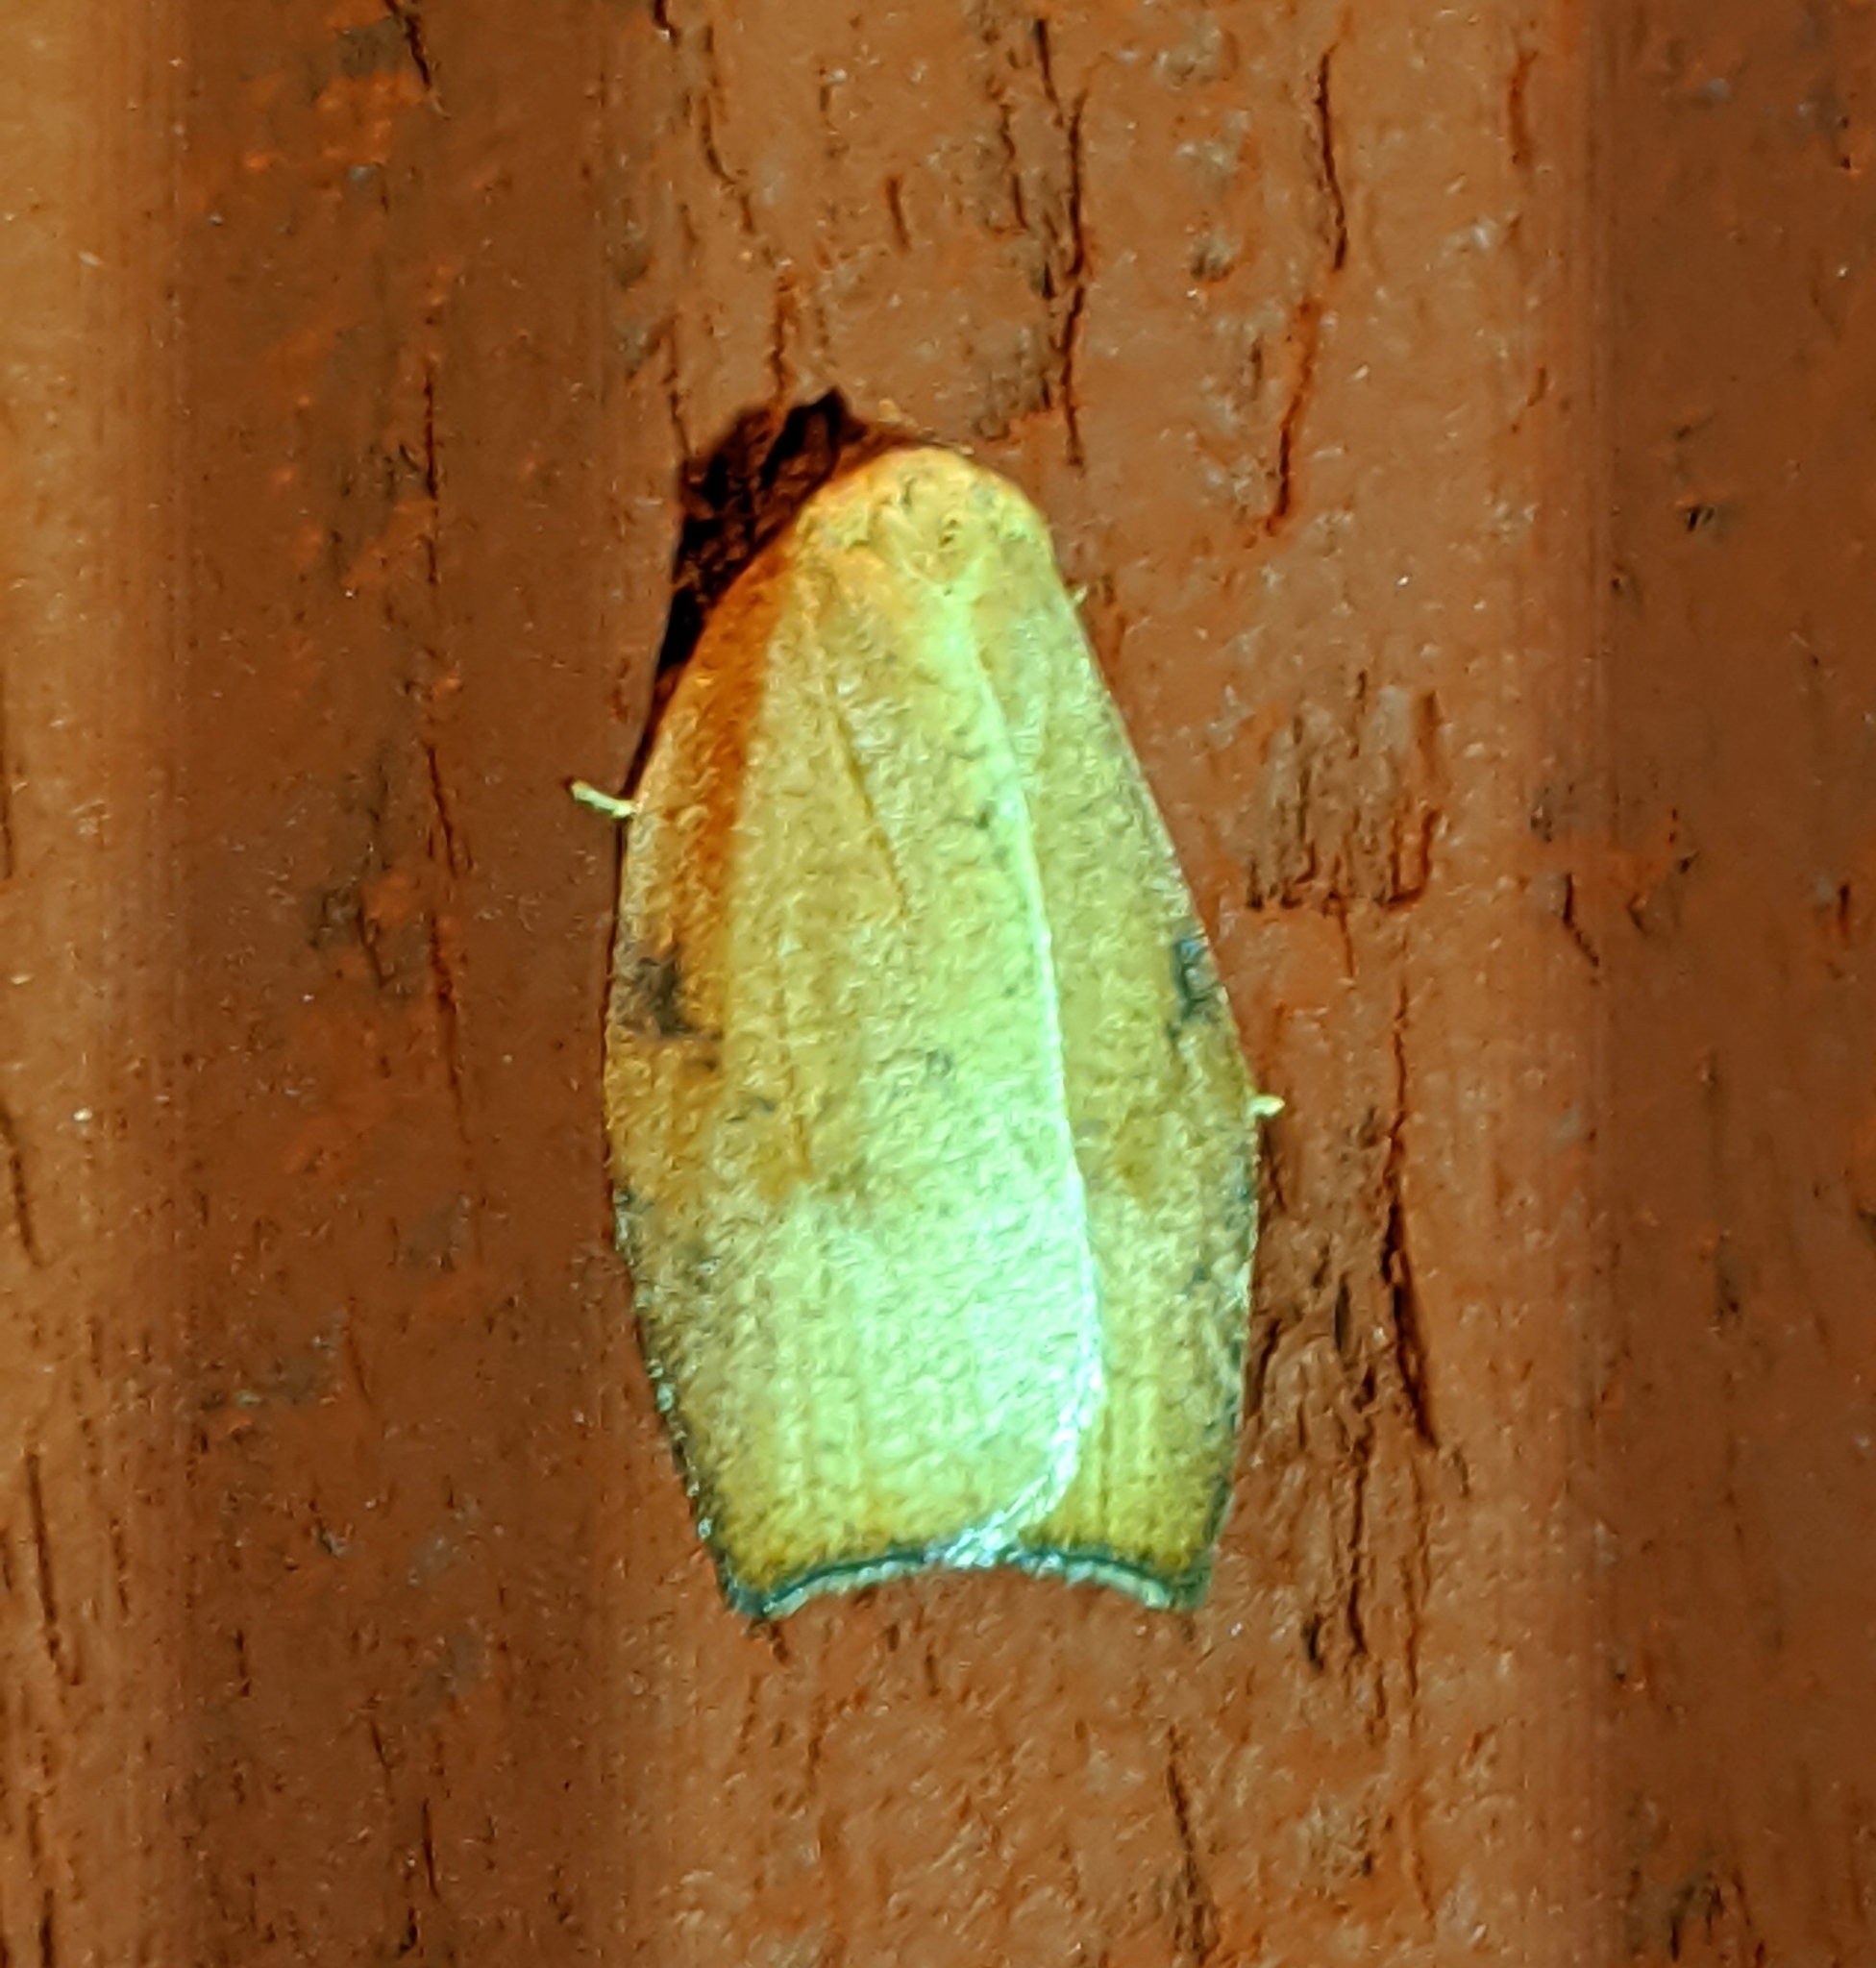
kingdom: Animalia
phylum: Arthropoda
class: Insecta
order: Lepidoptera
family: Tortricidae
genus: Amorbia
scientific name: Amorbia cuneanum
